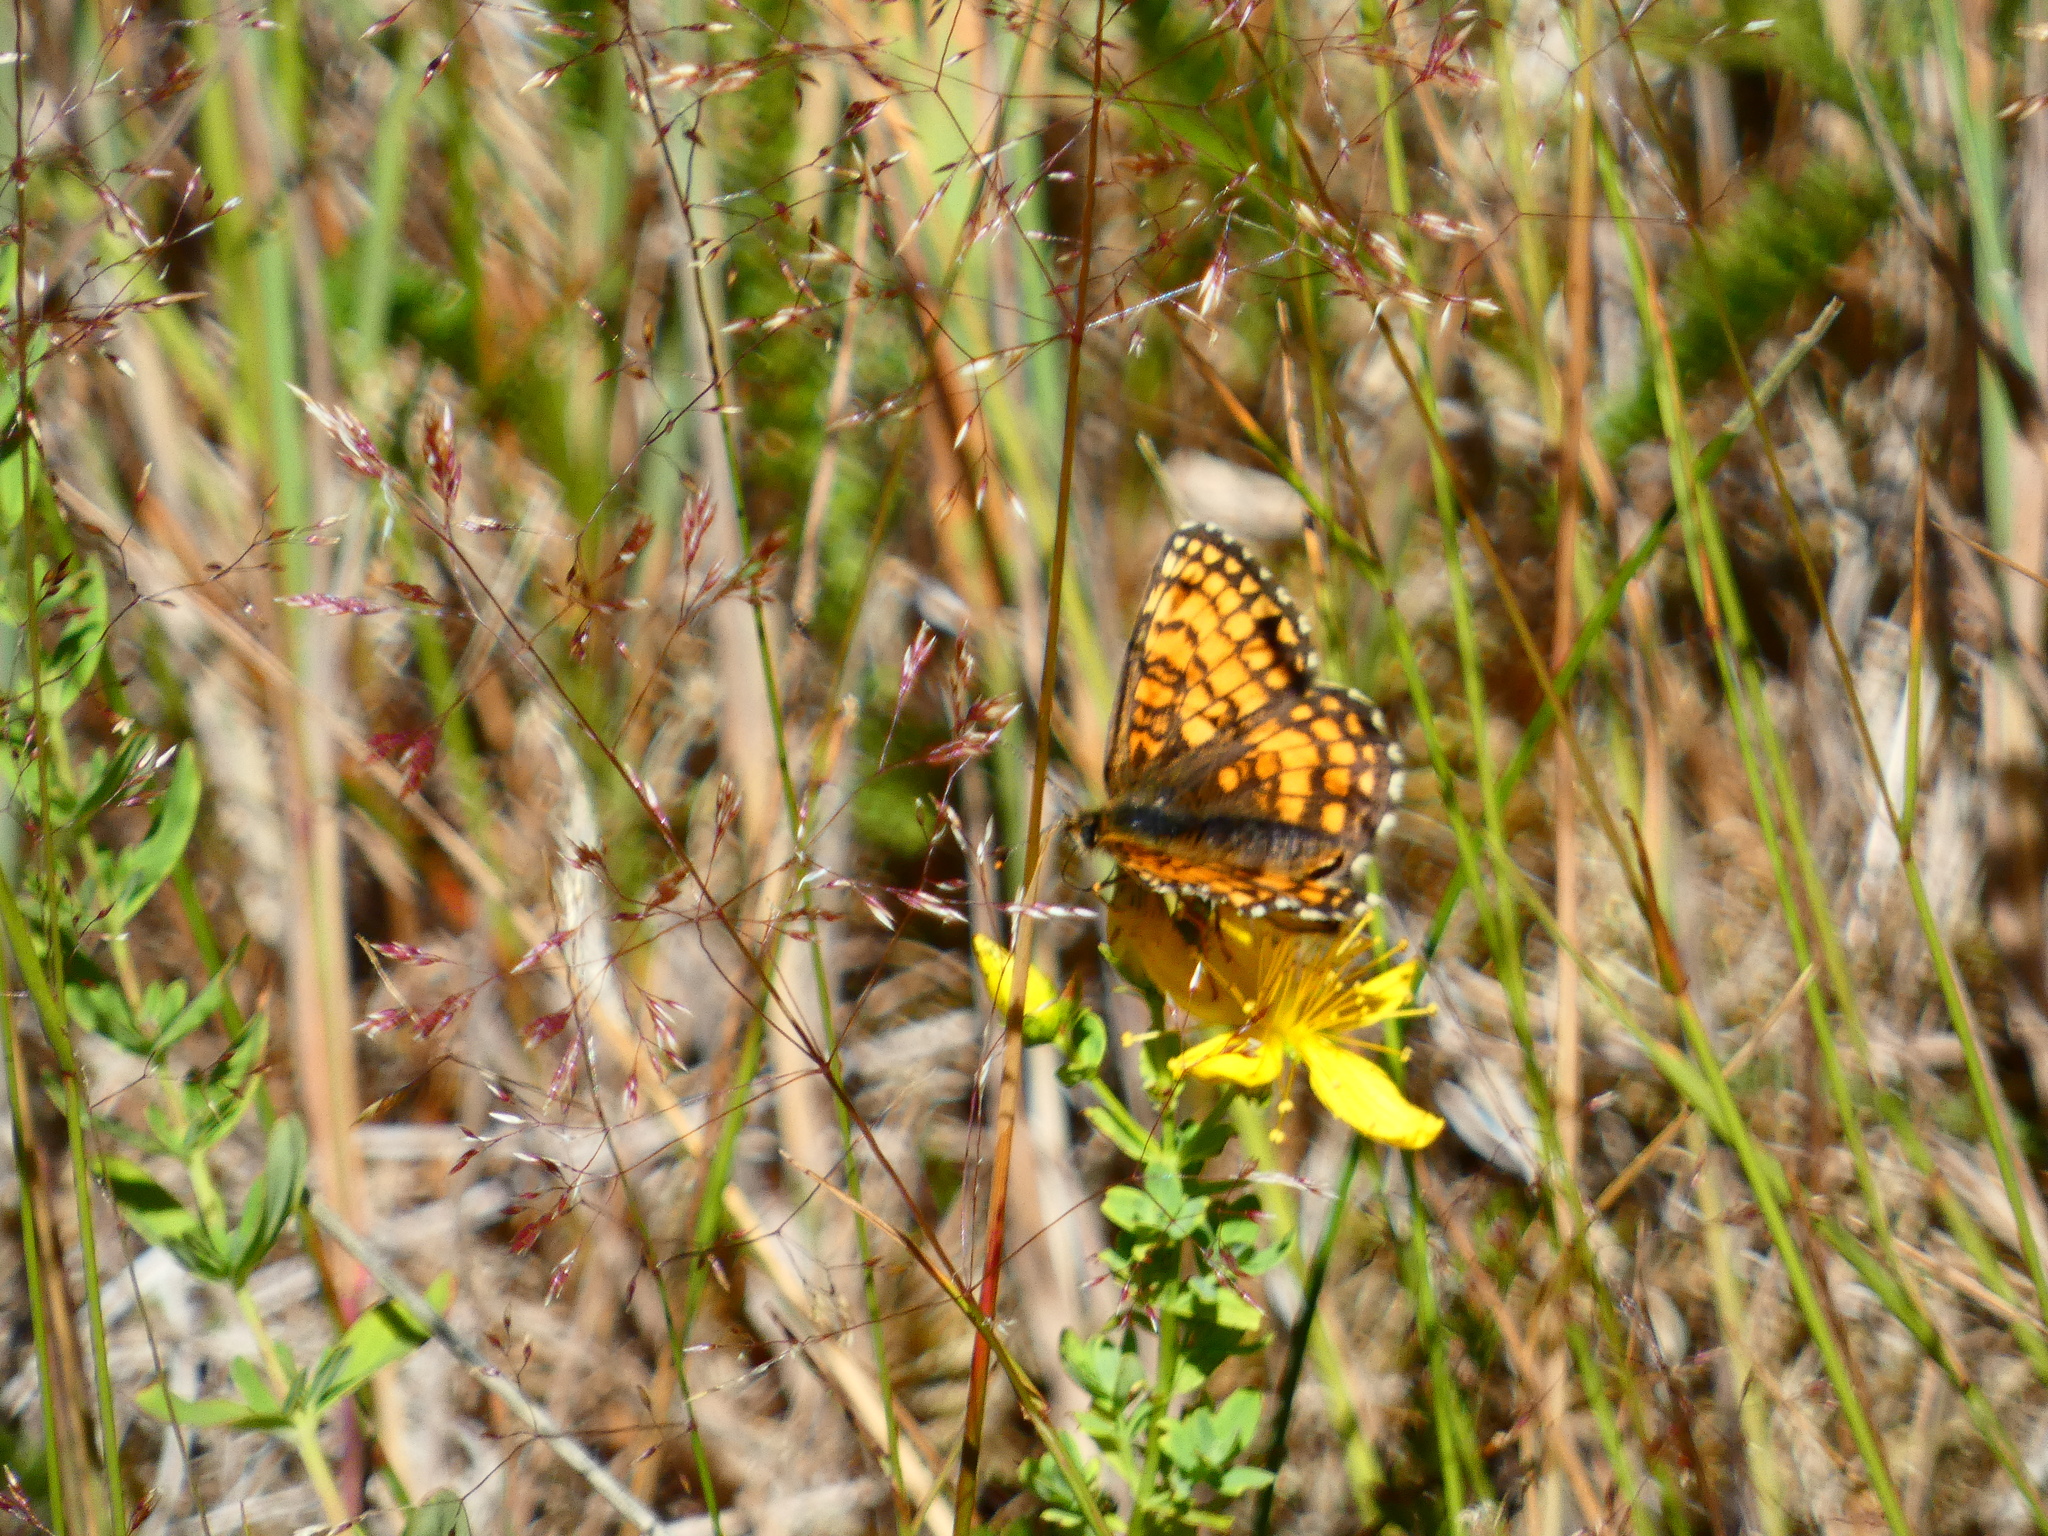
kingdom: Animalia
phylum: Arthropoda
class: Insecta
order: Lepidoptera
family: Nymphalidae
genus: Melitaea
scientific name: Melitaea athalia
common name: Heath fritillary
